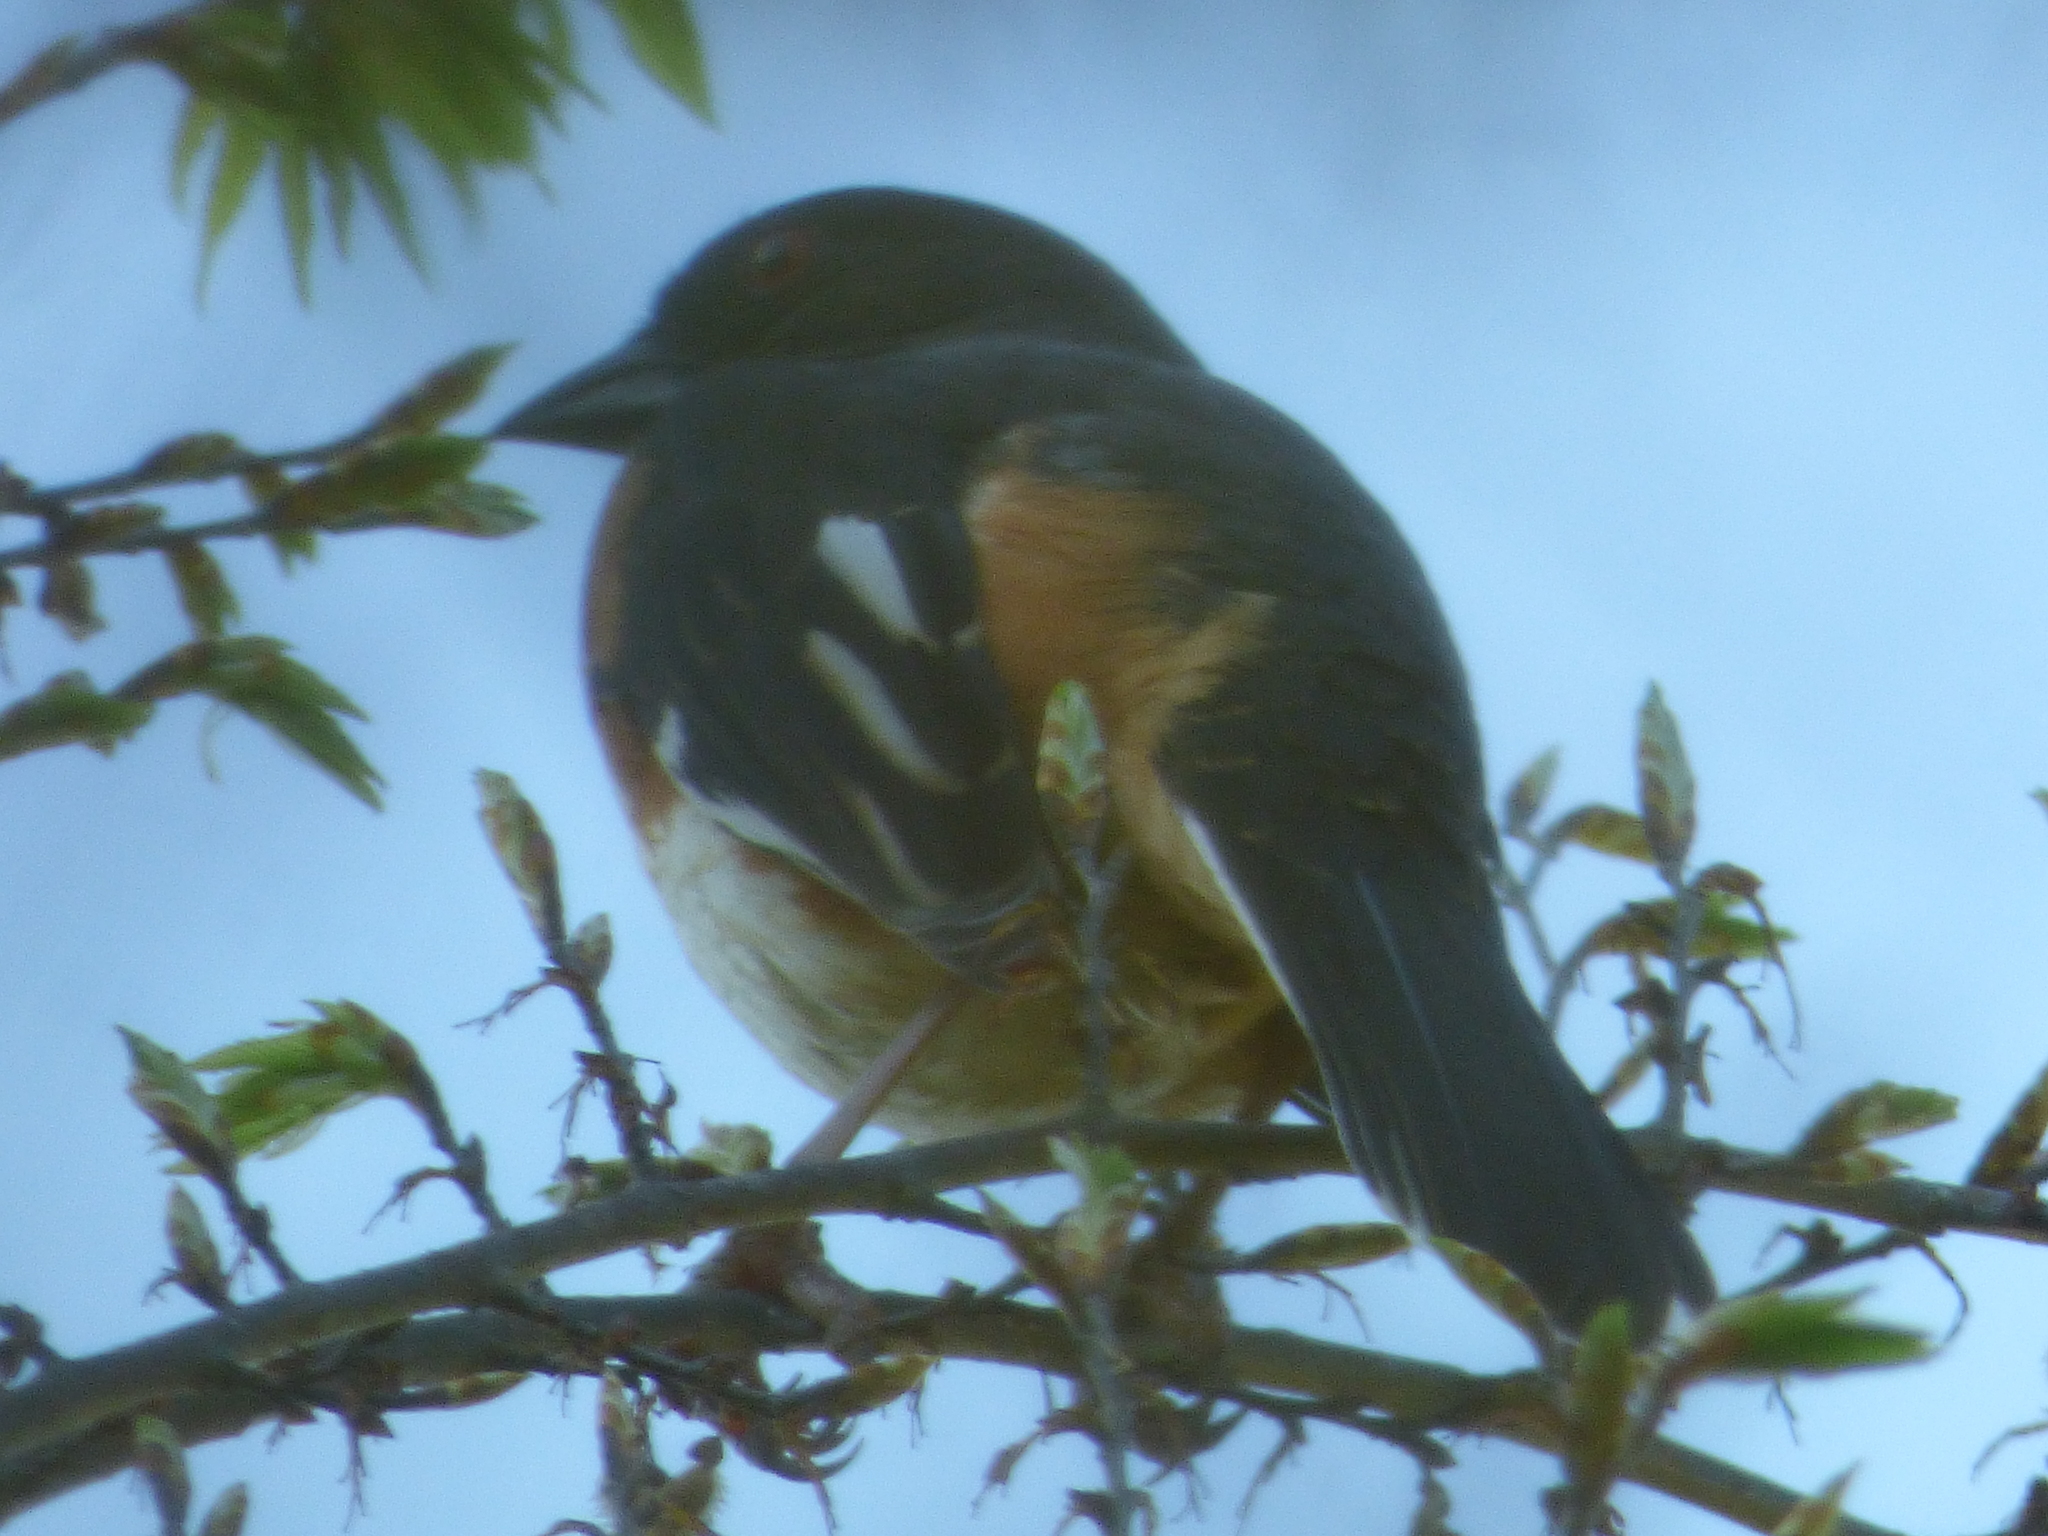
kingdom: Animalia
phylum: Chordata
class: Aves
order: Passeriformes
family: Passerellidae
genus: Pipilo
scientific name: Pipilo erythrophthalmus
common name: Eastern towhee
